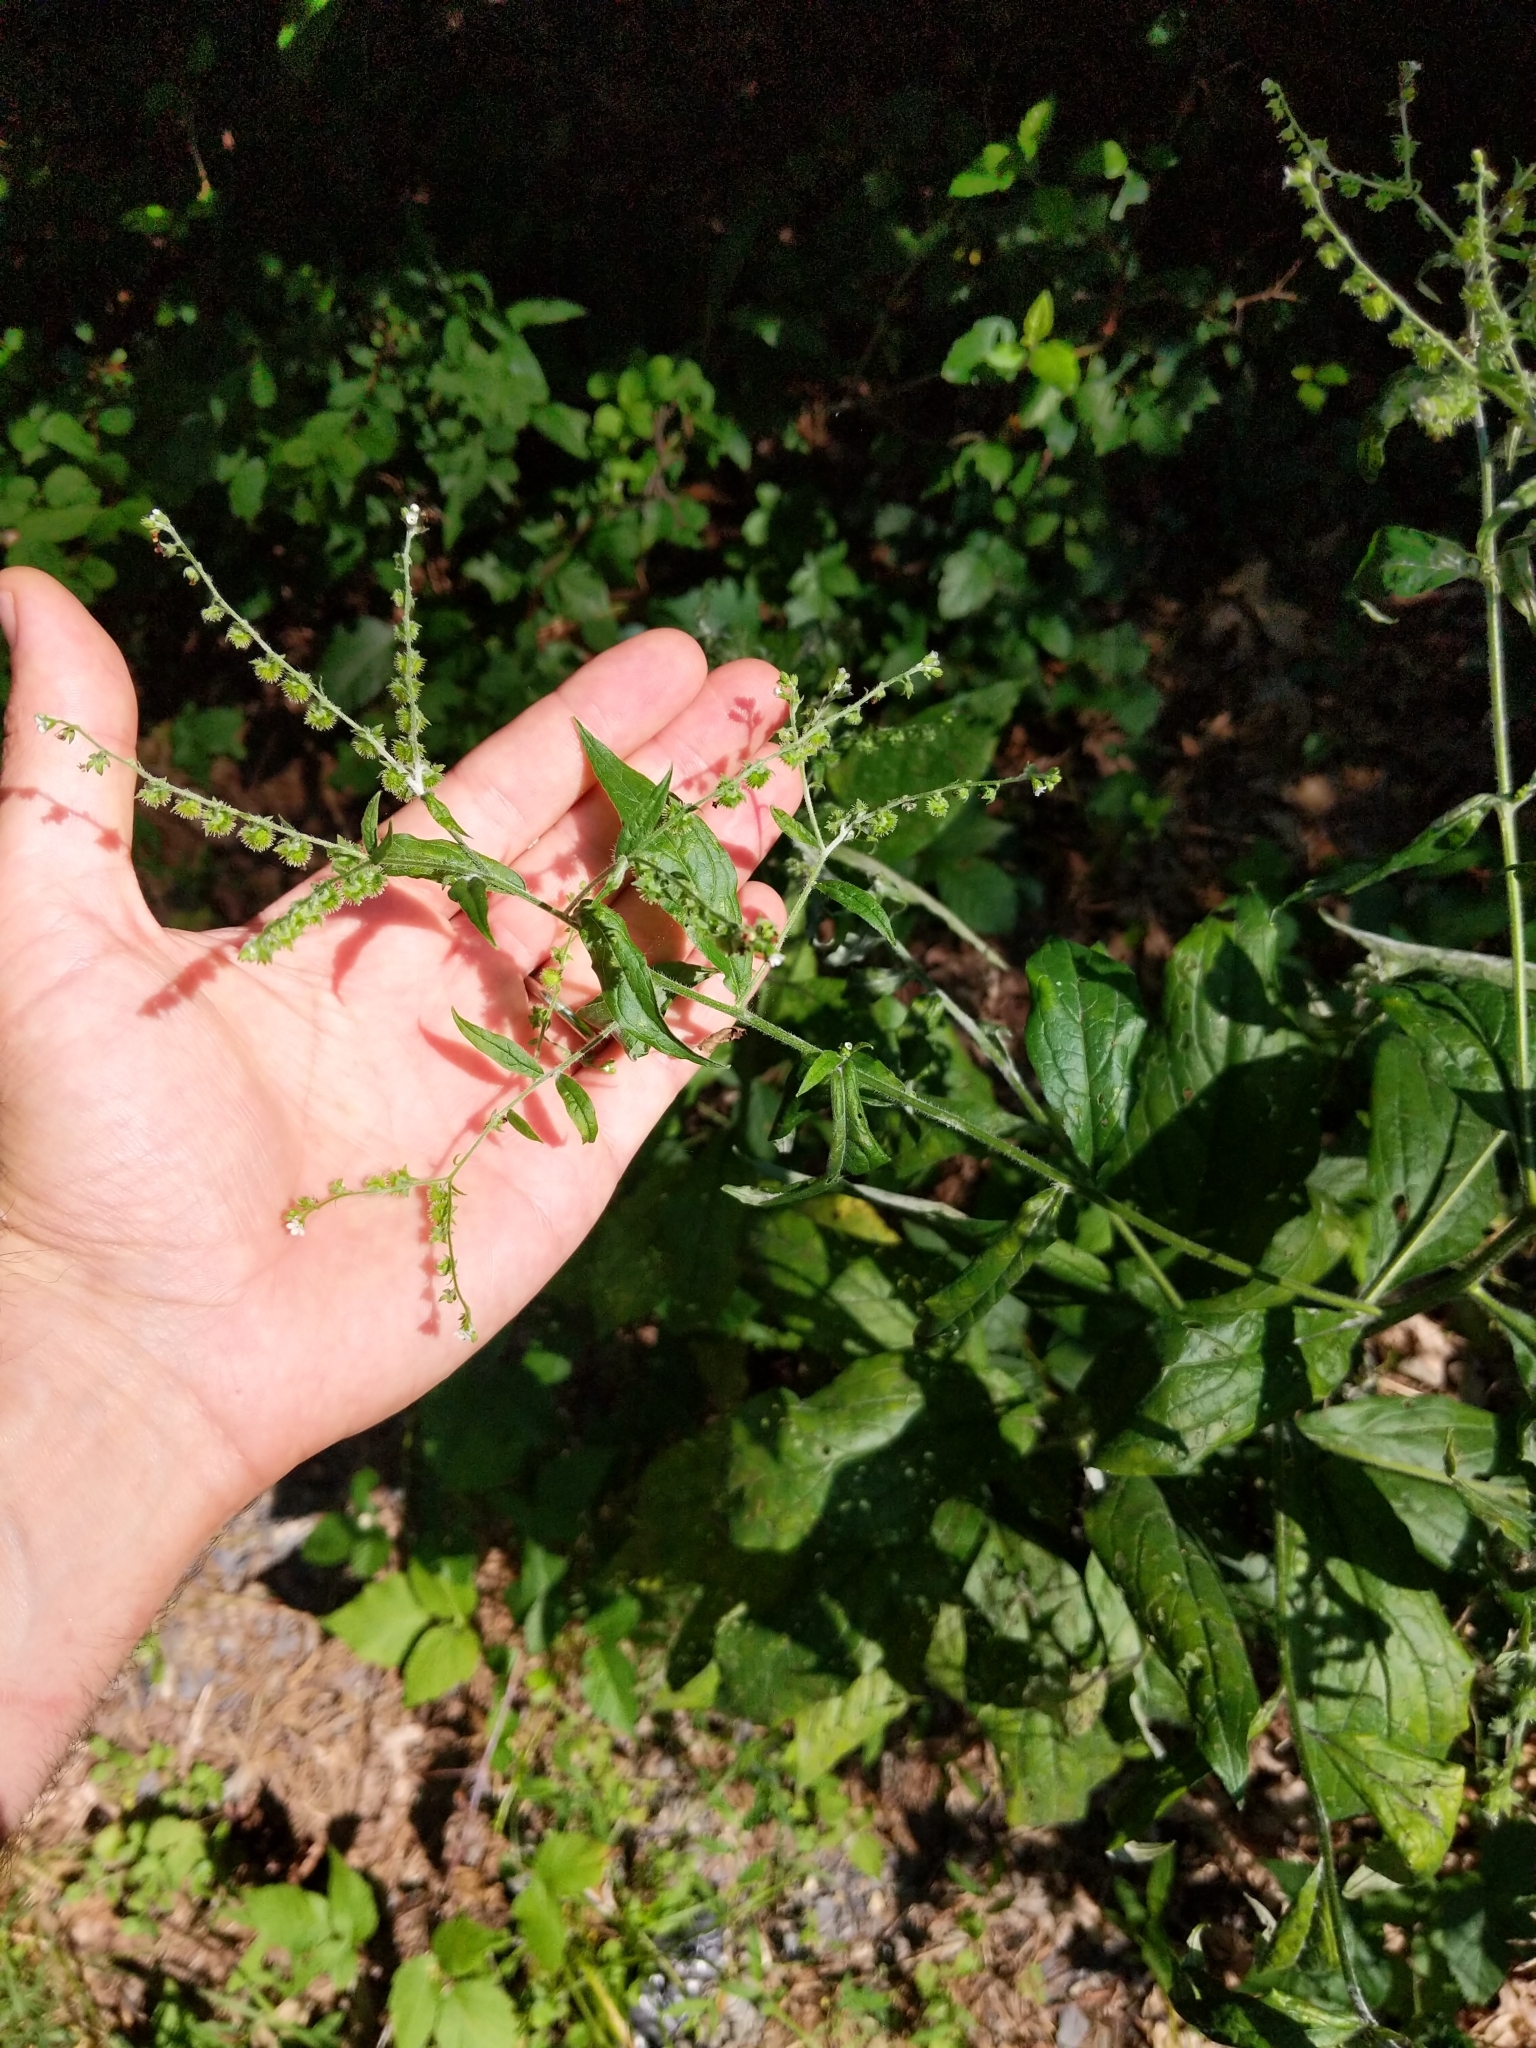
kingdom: Plantae
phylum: Tracheophyta
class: Magnoliopsida
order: Boraginales
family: Boraginaceae
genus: Hackelia
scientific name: Hackelia virginiana
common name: Beggar's-lice
